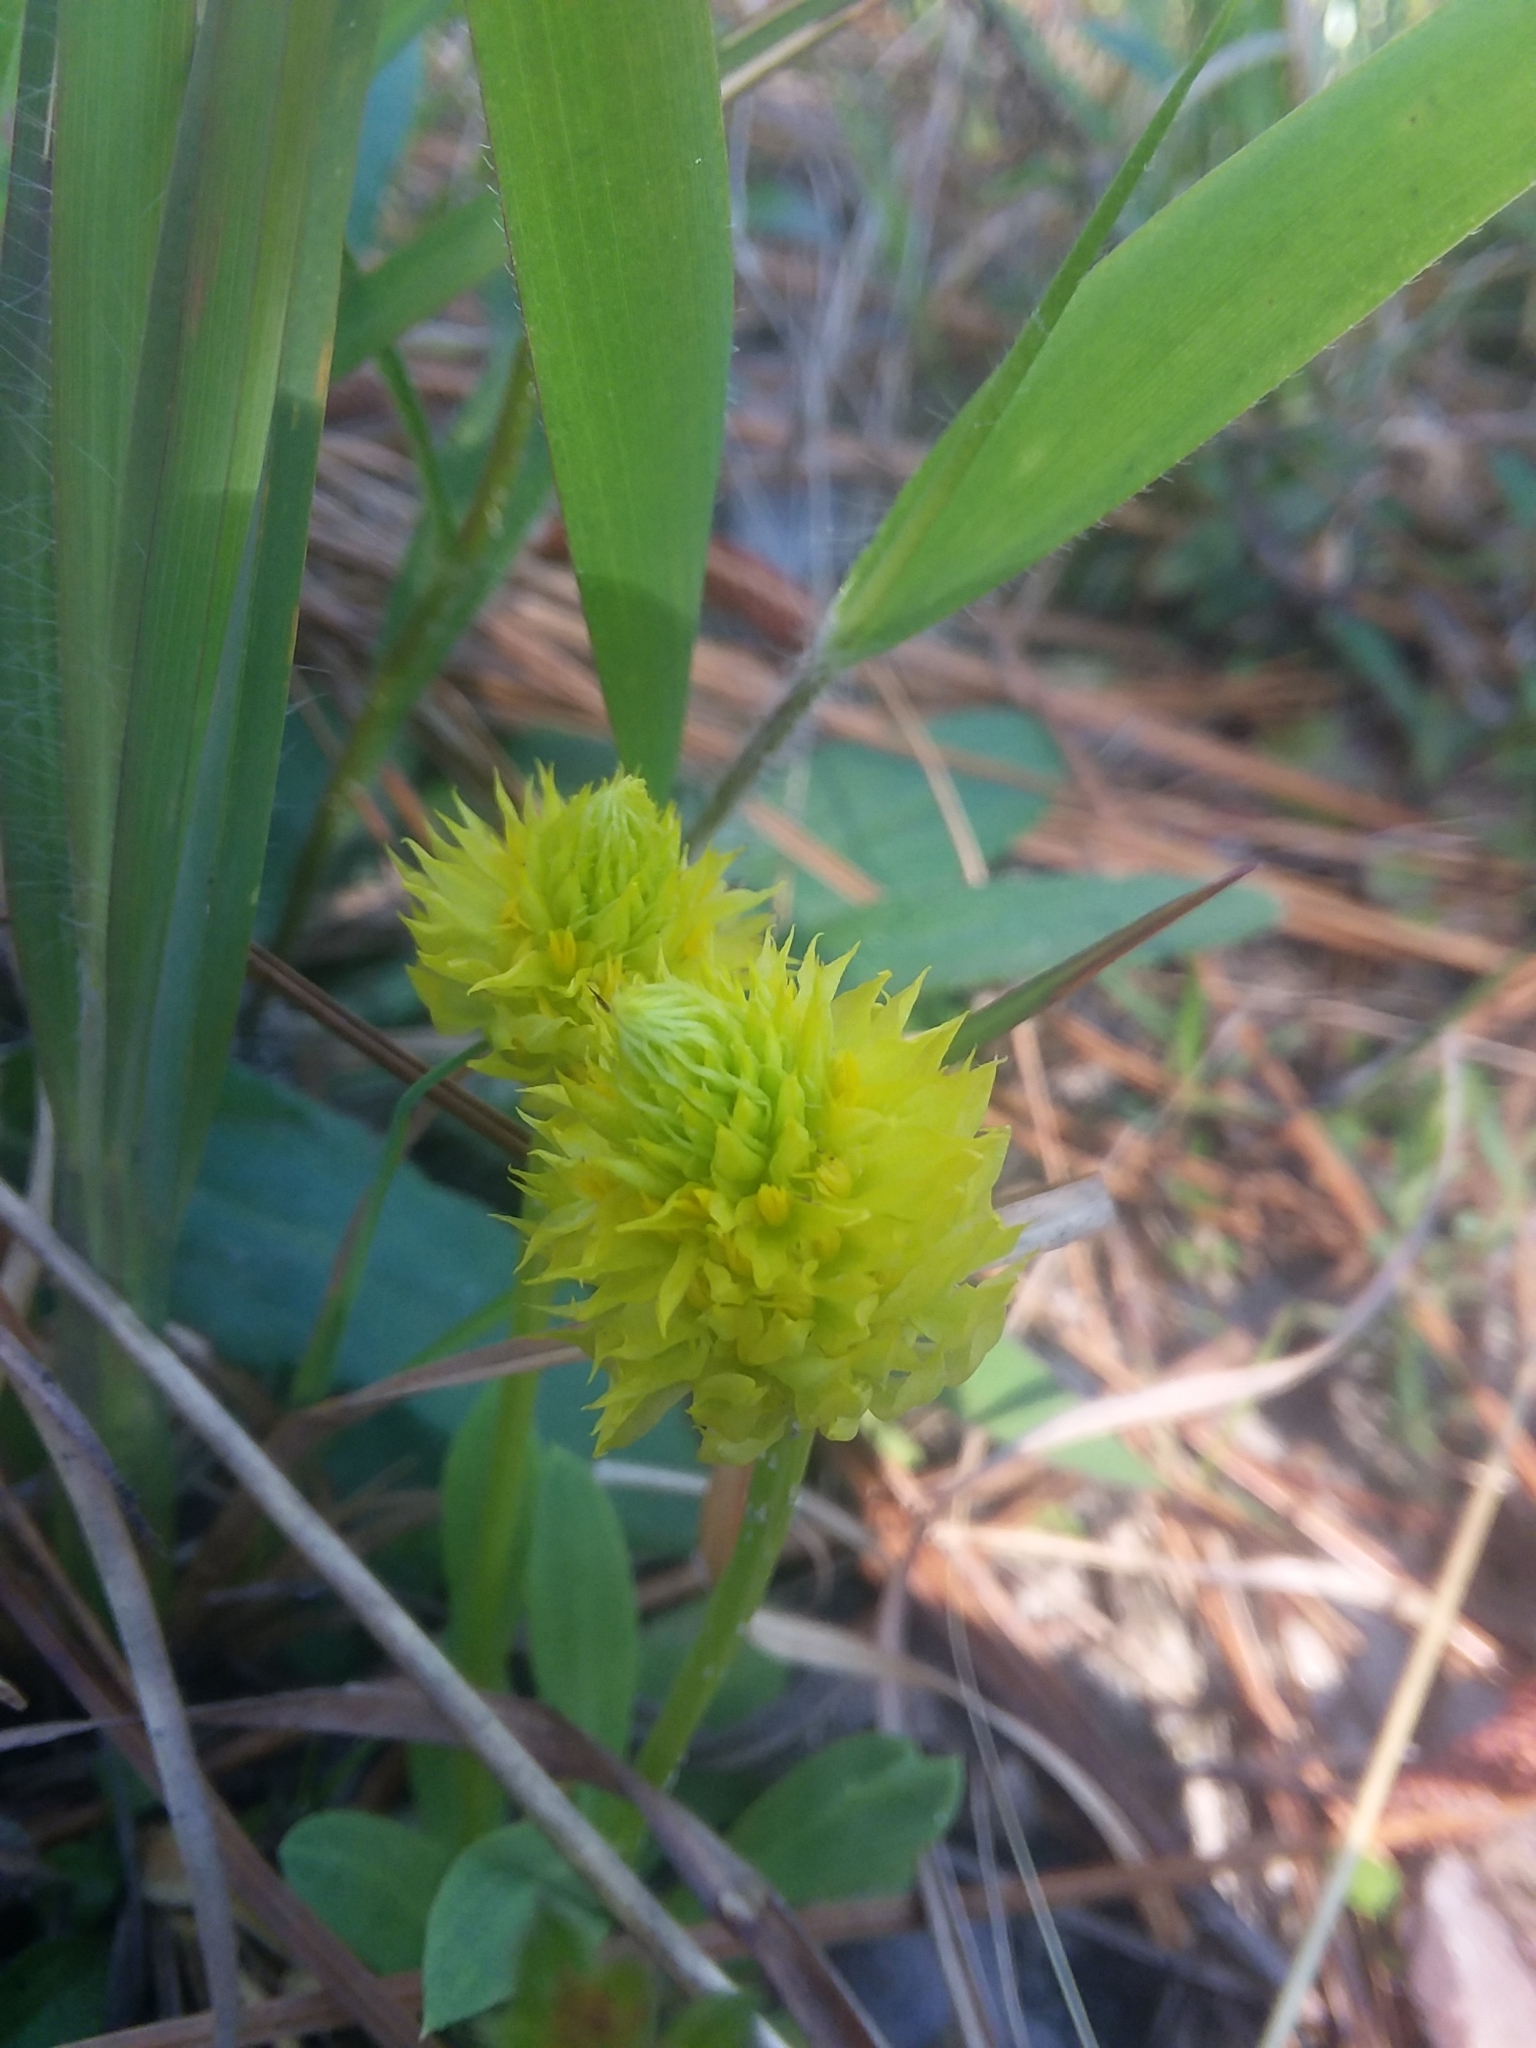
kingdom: Plantae
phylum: Tracheophyta
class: Magnoliopsida
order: Fabales
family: Polygalaceae
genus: Polygala
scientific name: Polygala nana
